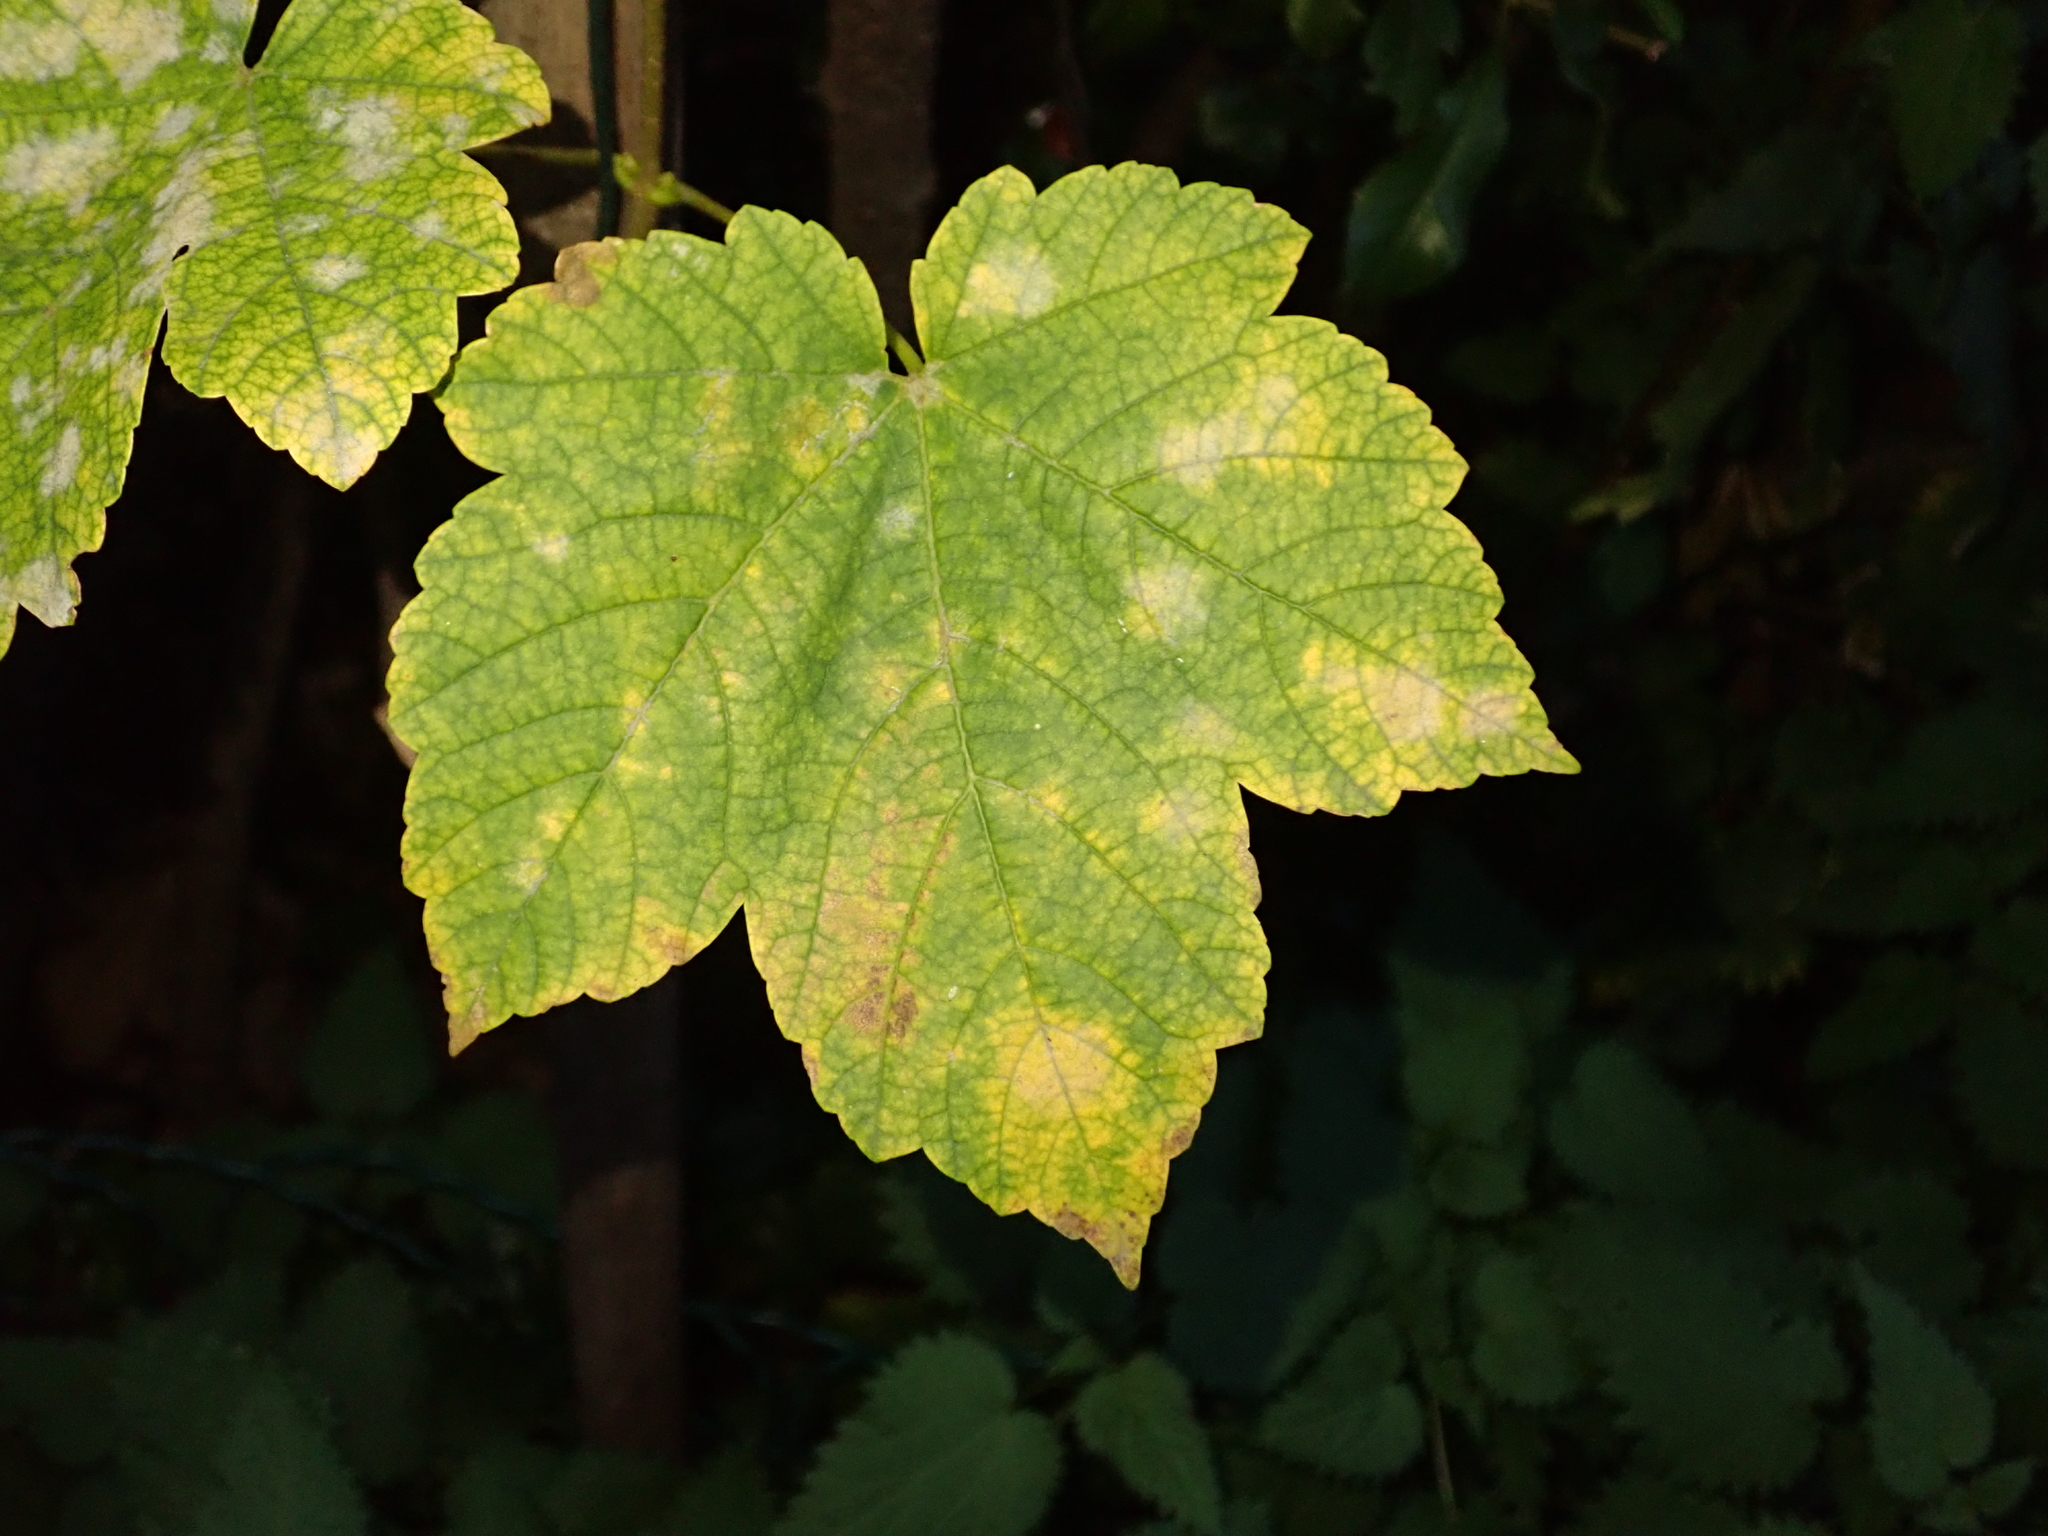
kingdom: Plantae
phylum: Tracheophyta
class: Magnoliopsida
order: Sapindales
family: Sapindaceae
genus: Acer
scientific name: Acer pseudoplatanus
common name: Sycamore
